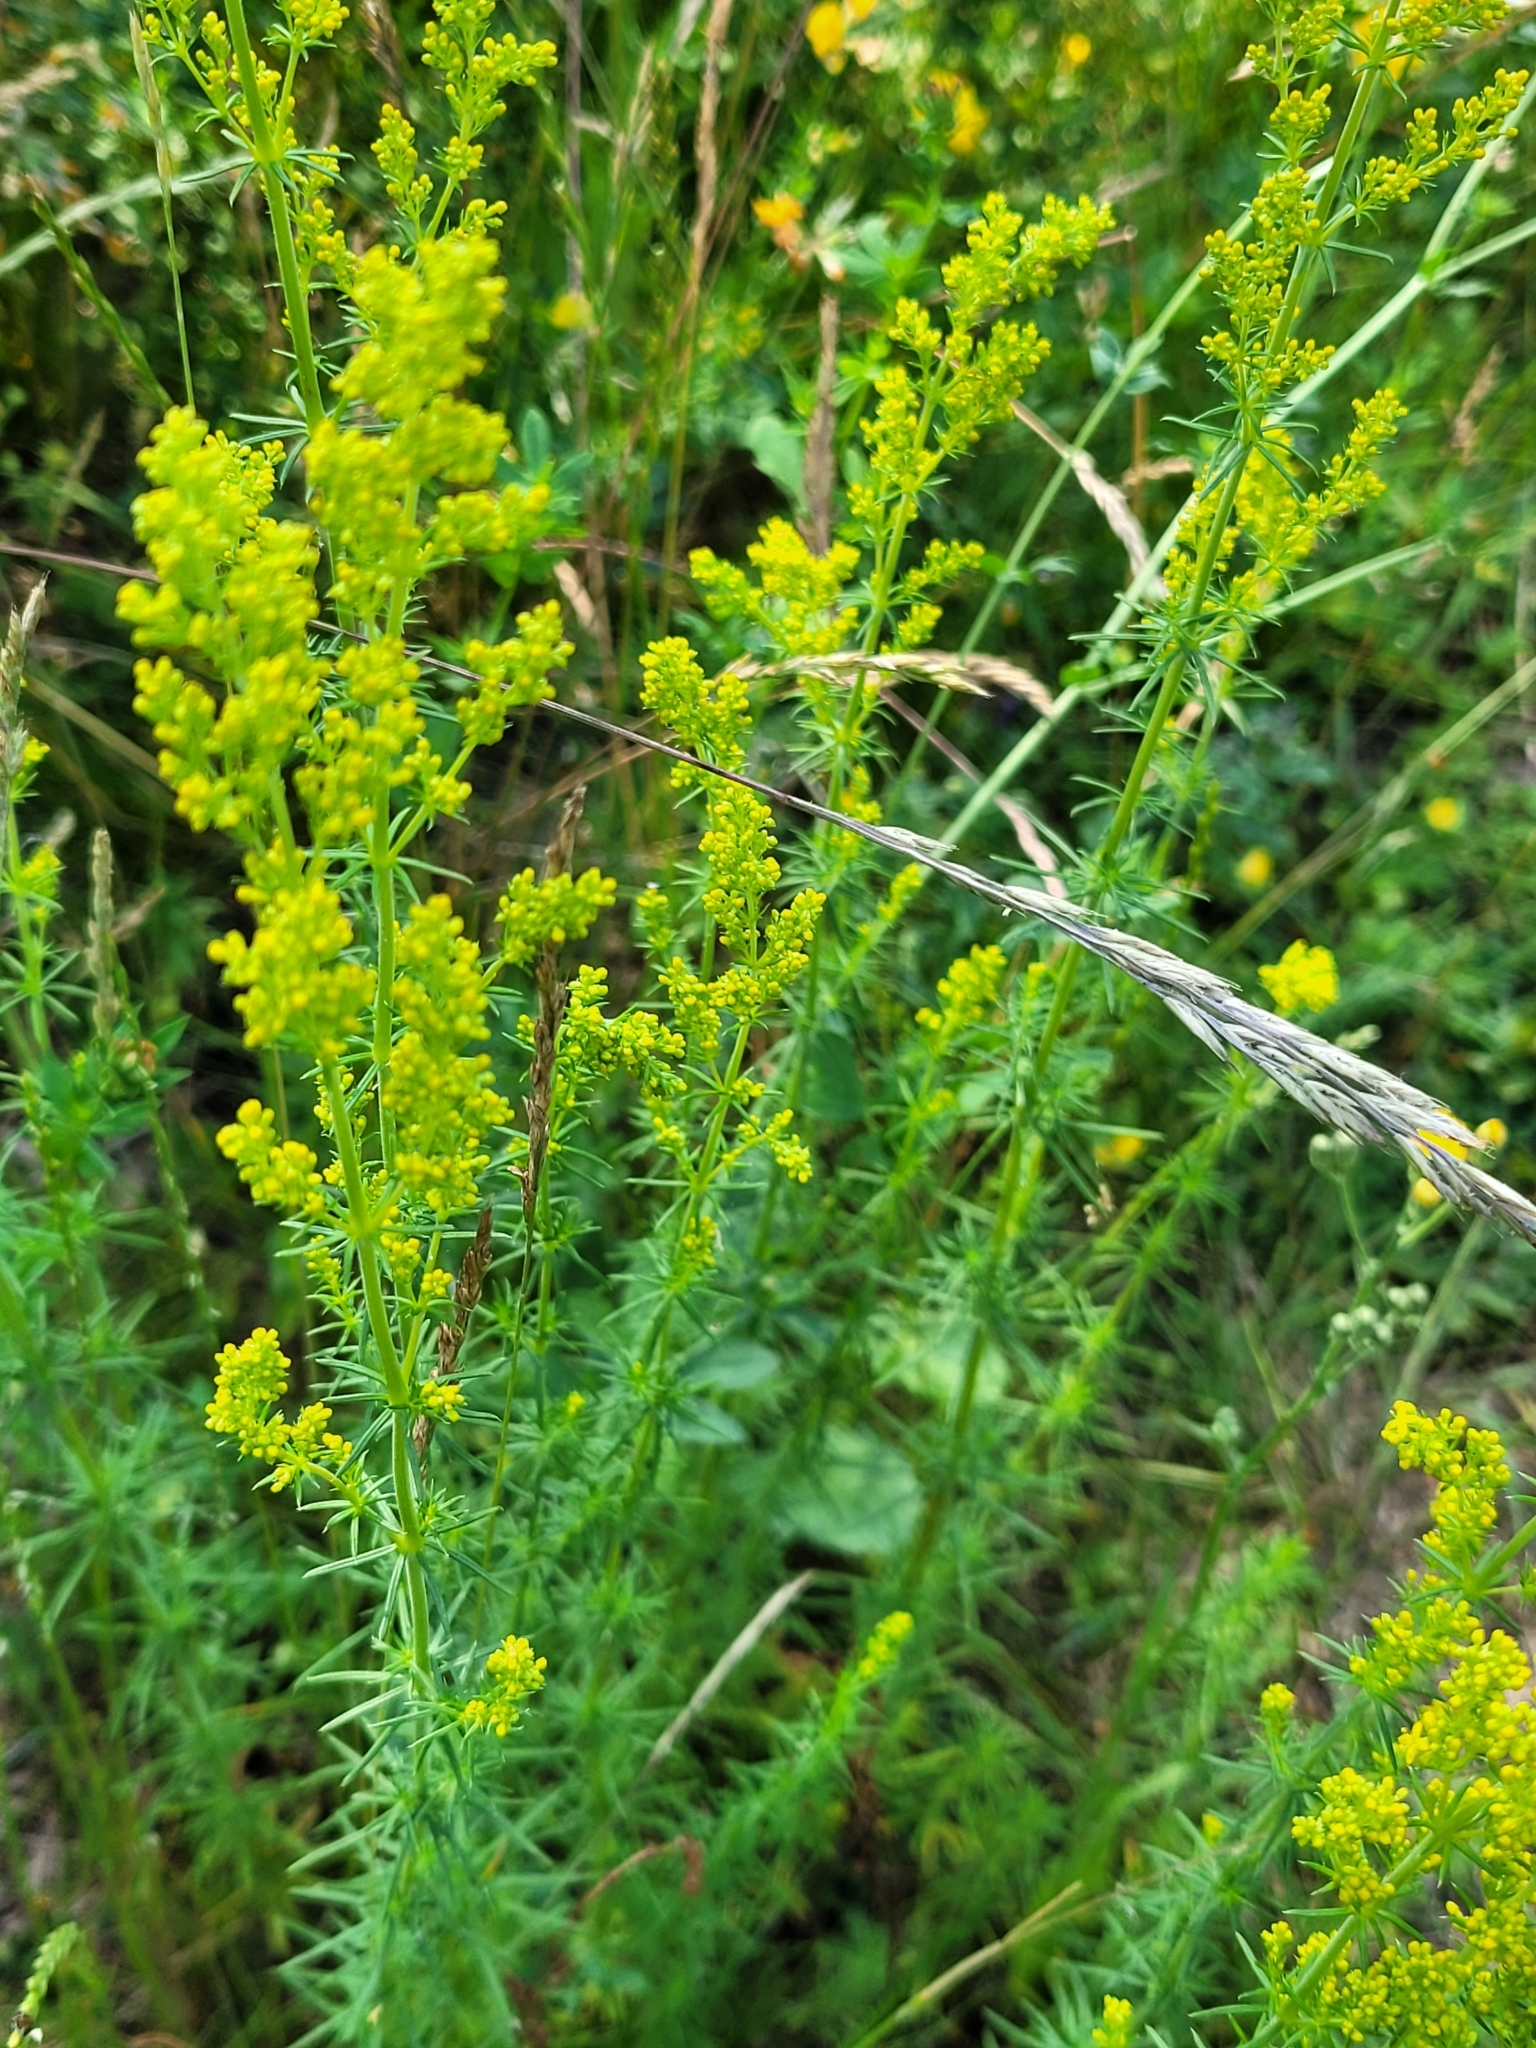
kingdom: Plantae
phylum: Tracheophyta
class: Magnoliopsida
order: Gentianales
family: Rubiaceae
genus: Galium
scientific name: Galium verum
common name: Lady's bedstraw
